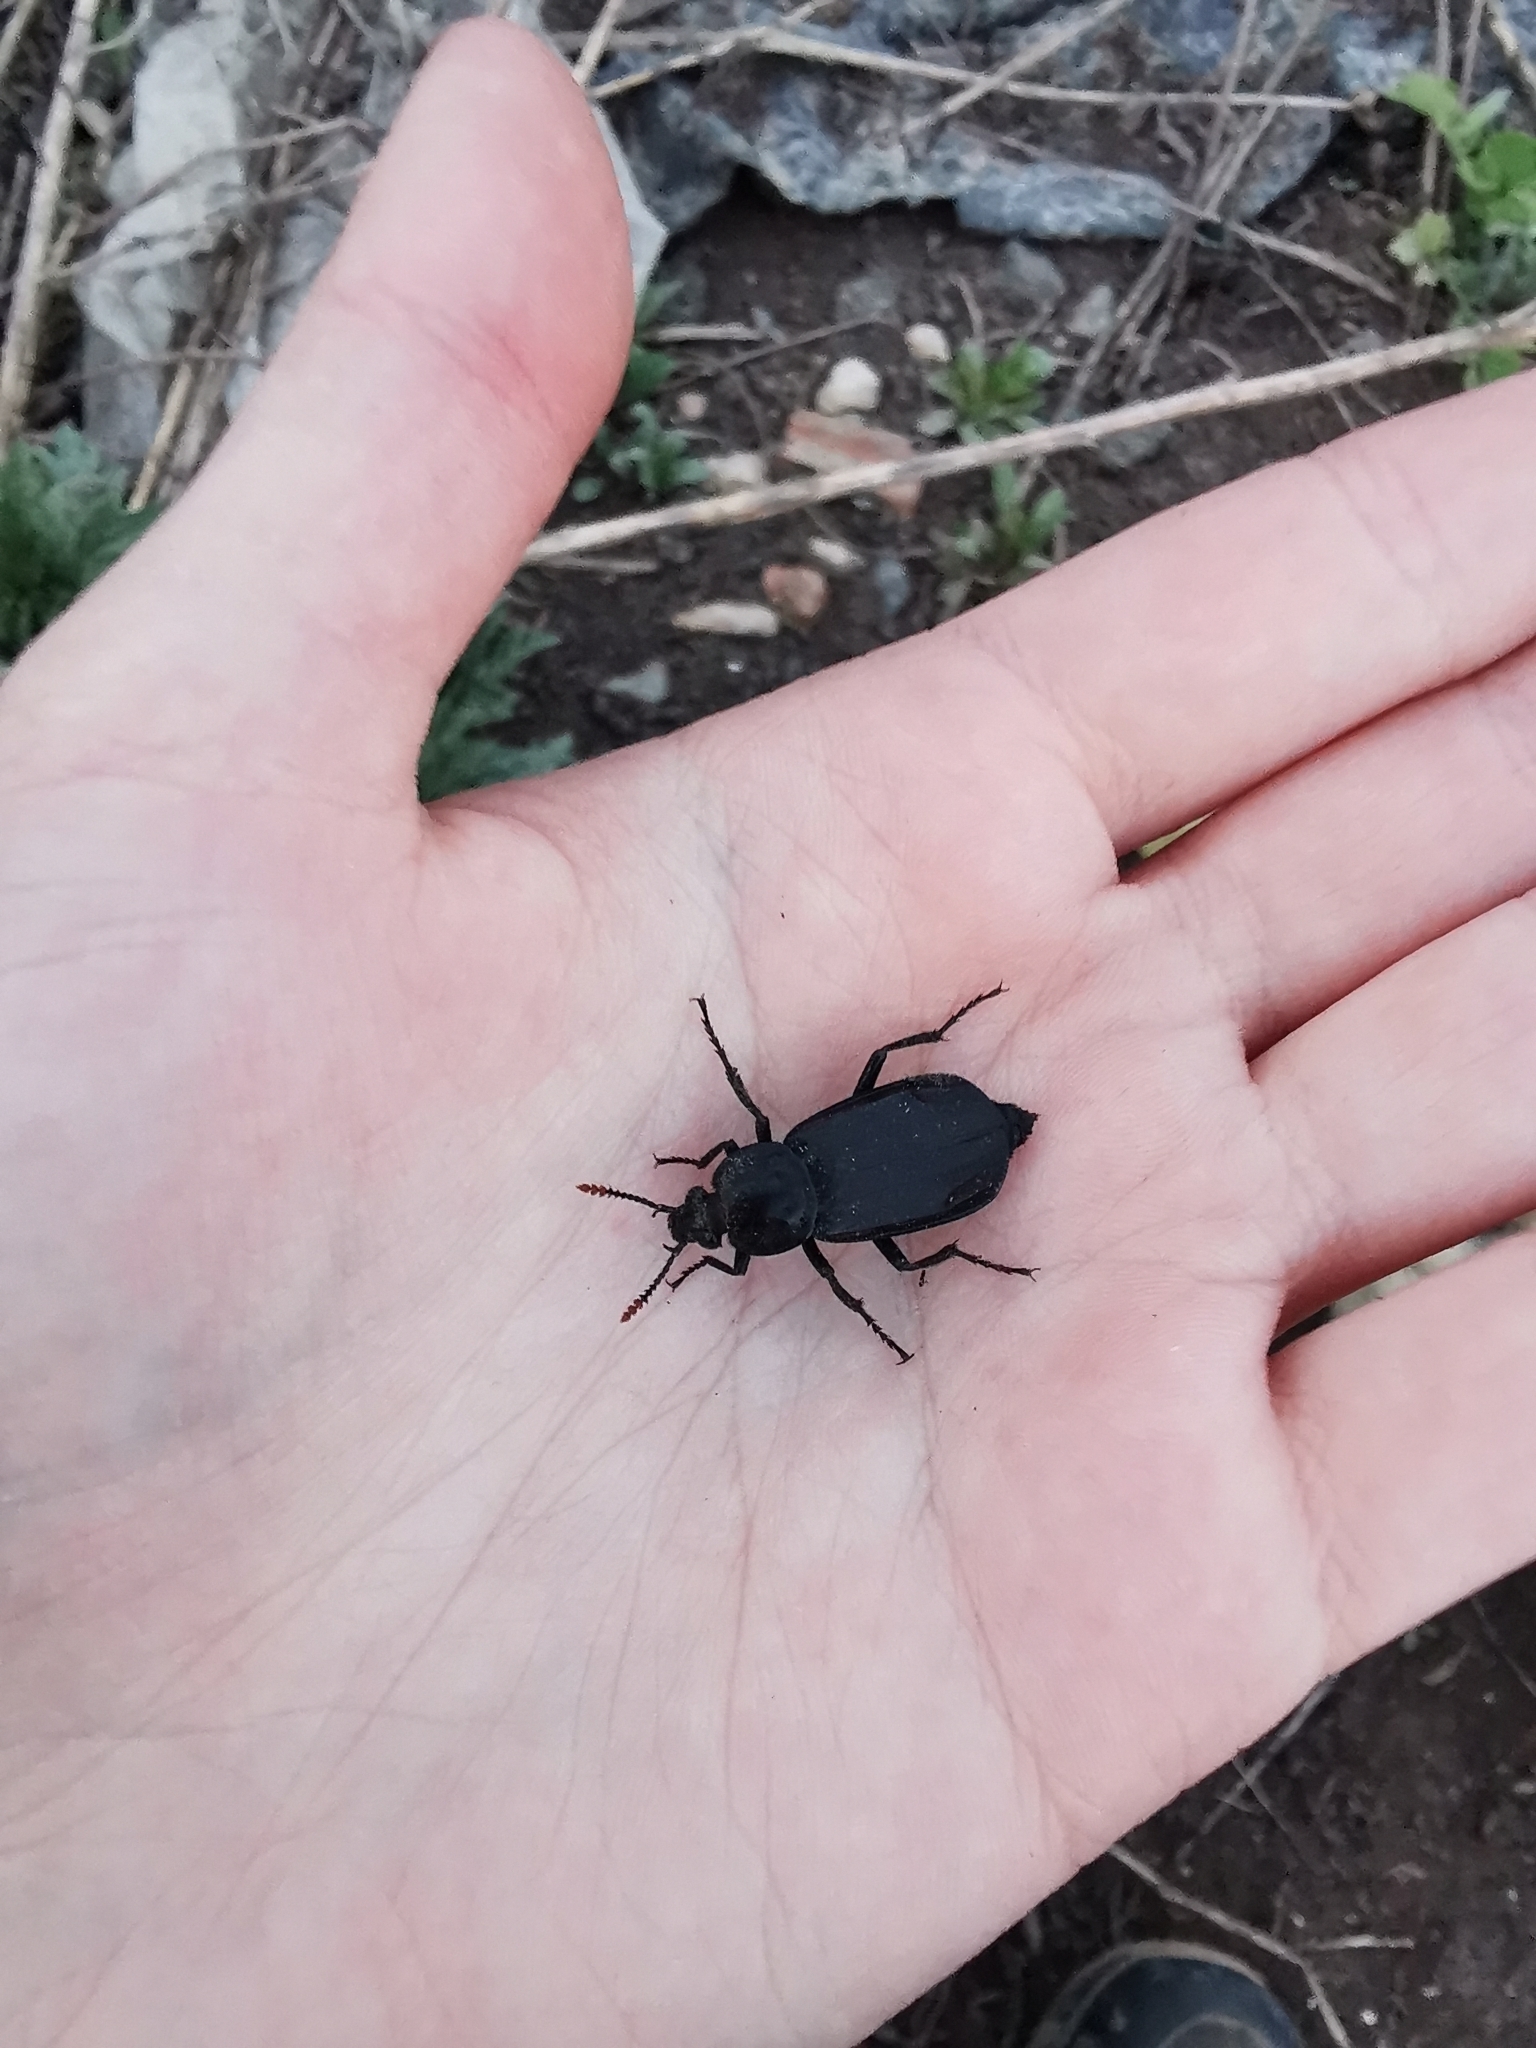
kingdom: Animalia
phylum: Arthropoda
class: Insecta
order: Coleoptera
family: Staphylinidae
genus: Necrodes
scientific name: Necrodes littoralis
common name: Shore sexton beetle
